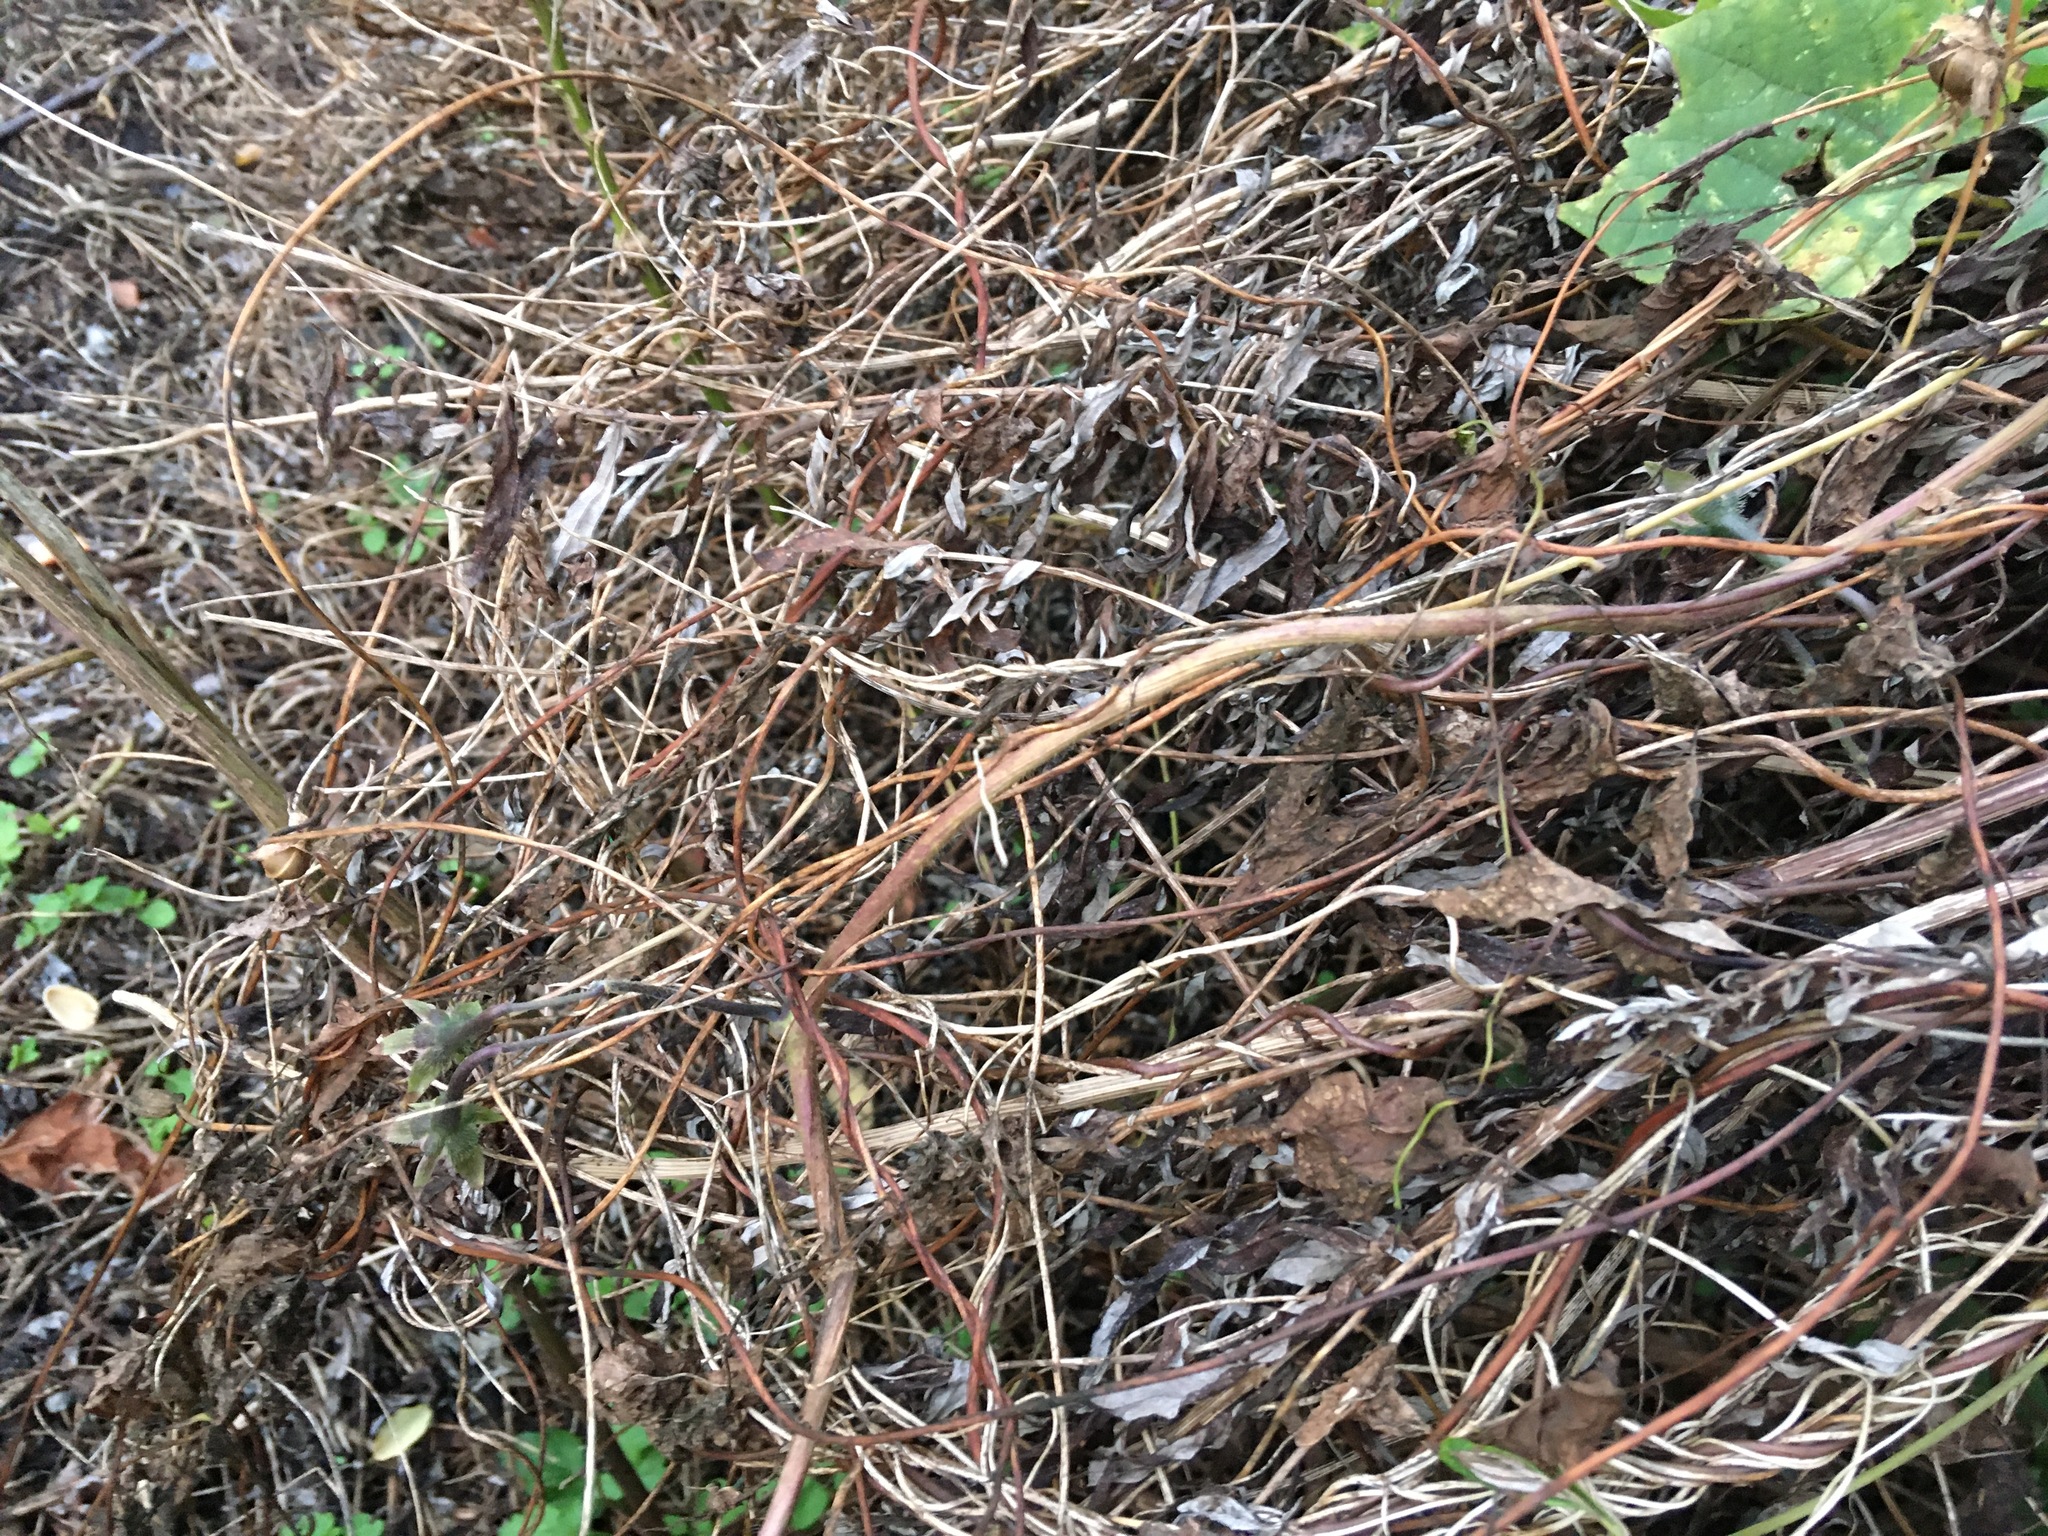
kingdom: Plantae
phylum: Tracheophyta
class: Magnoliopsida
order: Asterales
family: Asteraceae
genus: Artemisia
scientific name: Artemisia vulgaris
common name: Mugwort
